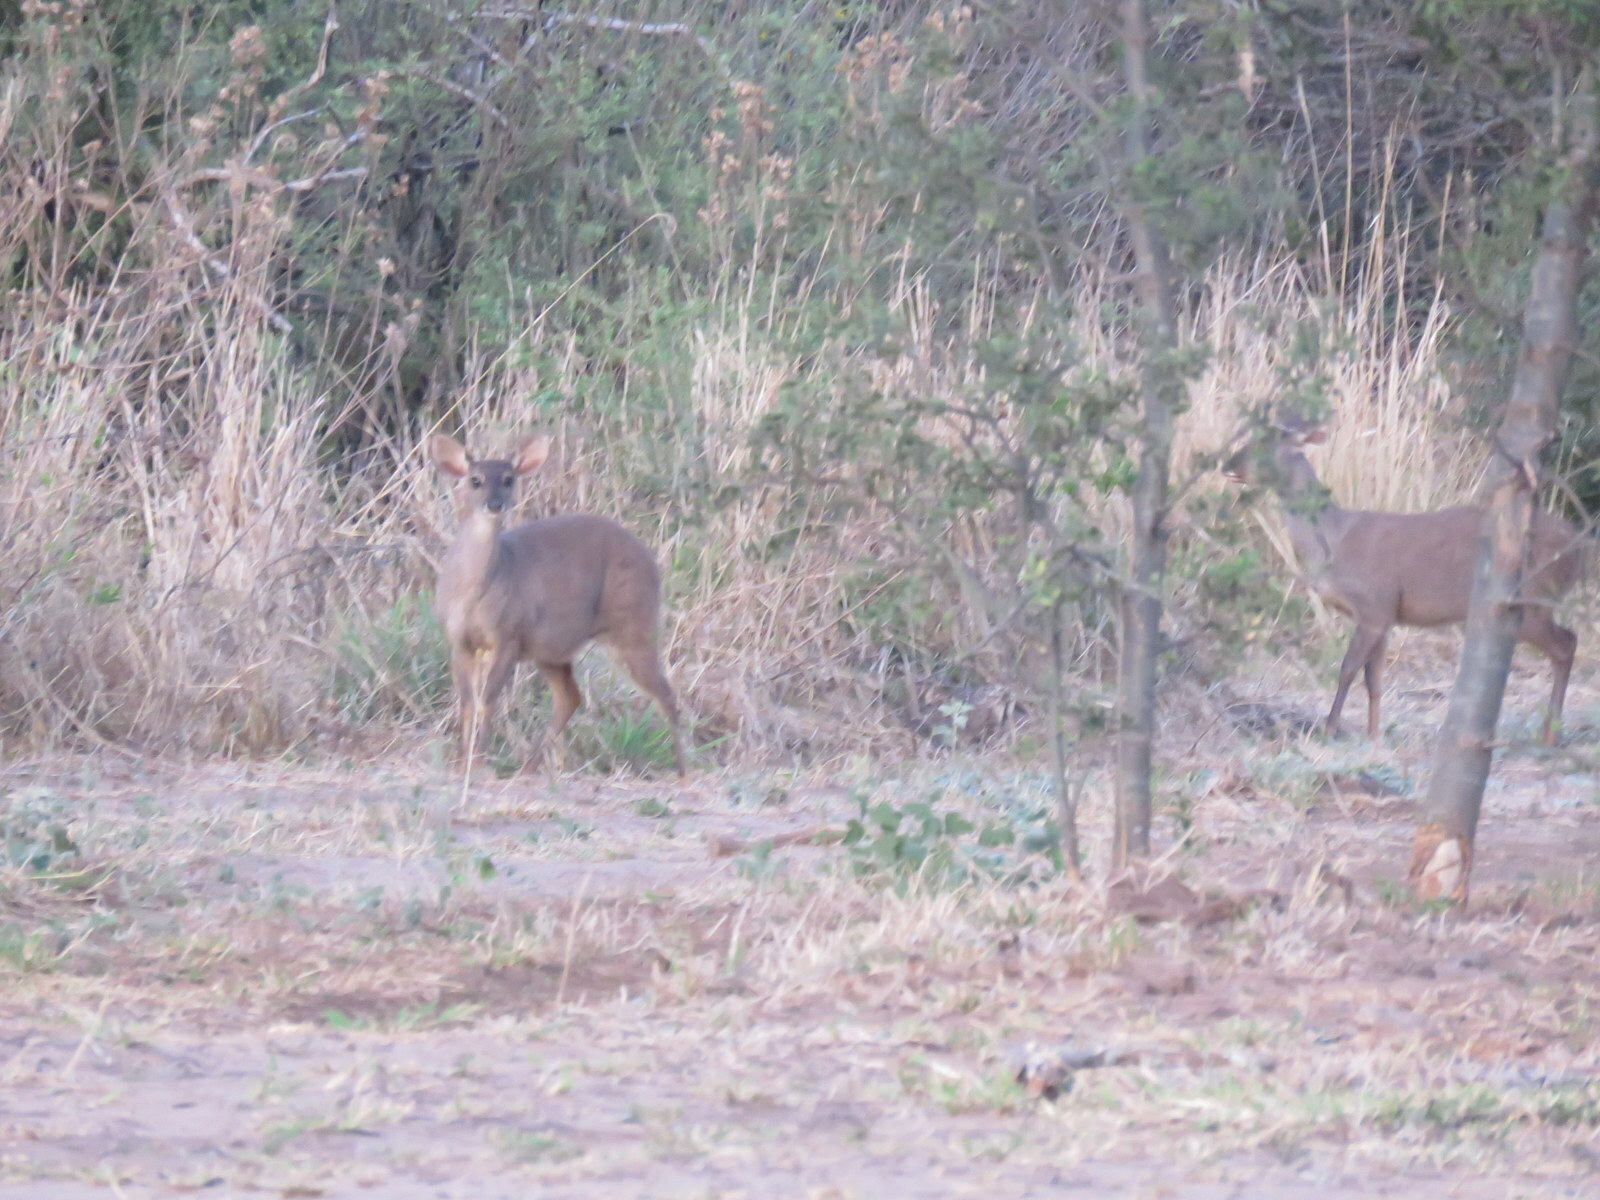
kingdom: Animalia
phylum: Chordata
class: Mammalia
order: Artiodactyla
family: Cervidae
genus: Mazama
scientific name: Mazama gouazoubira
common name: Gray brocket
